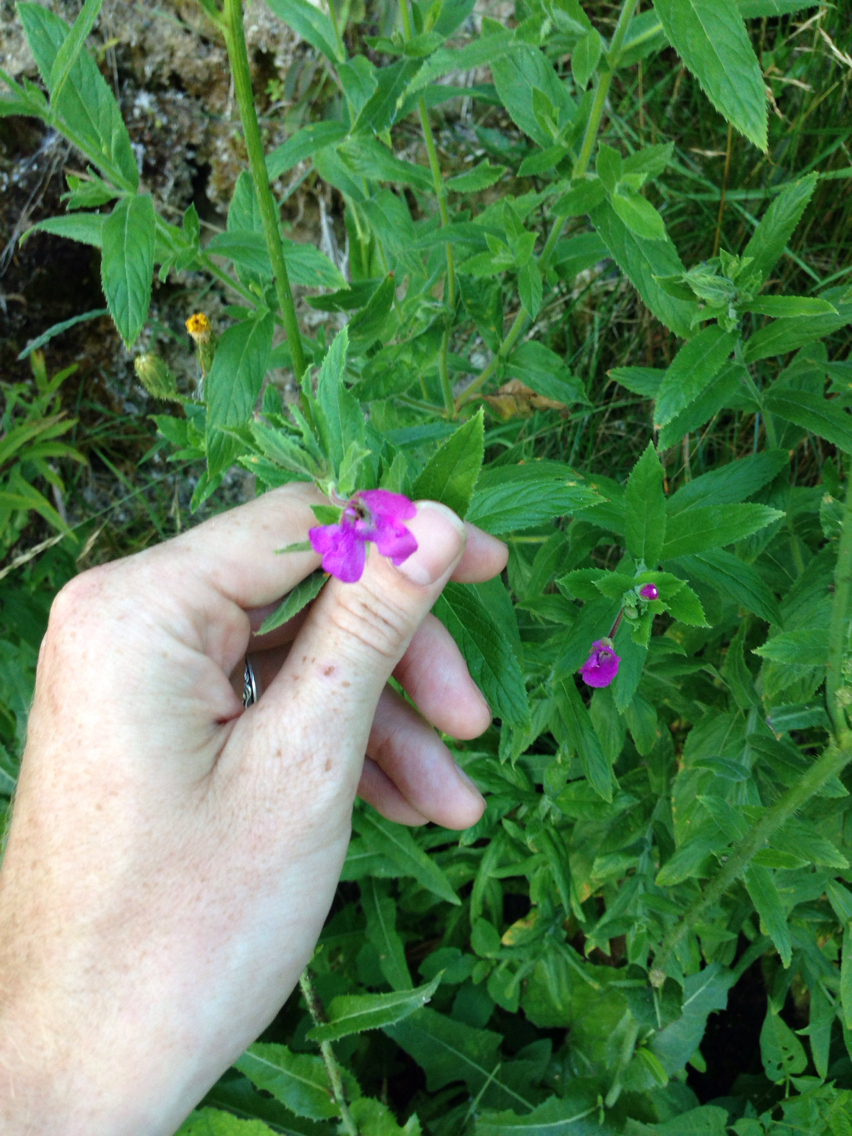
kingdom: Plantae
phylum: Tracheophyta
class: Magnoliopsida
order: Myrtales
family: Onagraceae
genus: Epilobium
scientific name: Epilobium hirsutum
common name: Great willowherb
